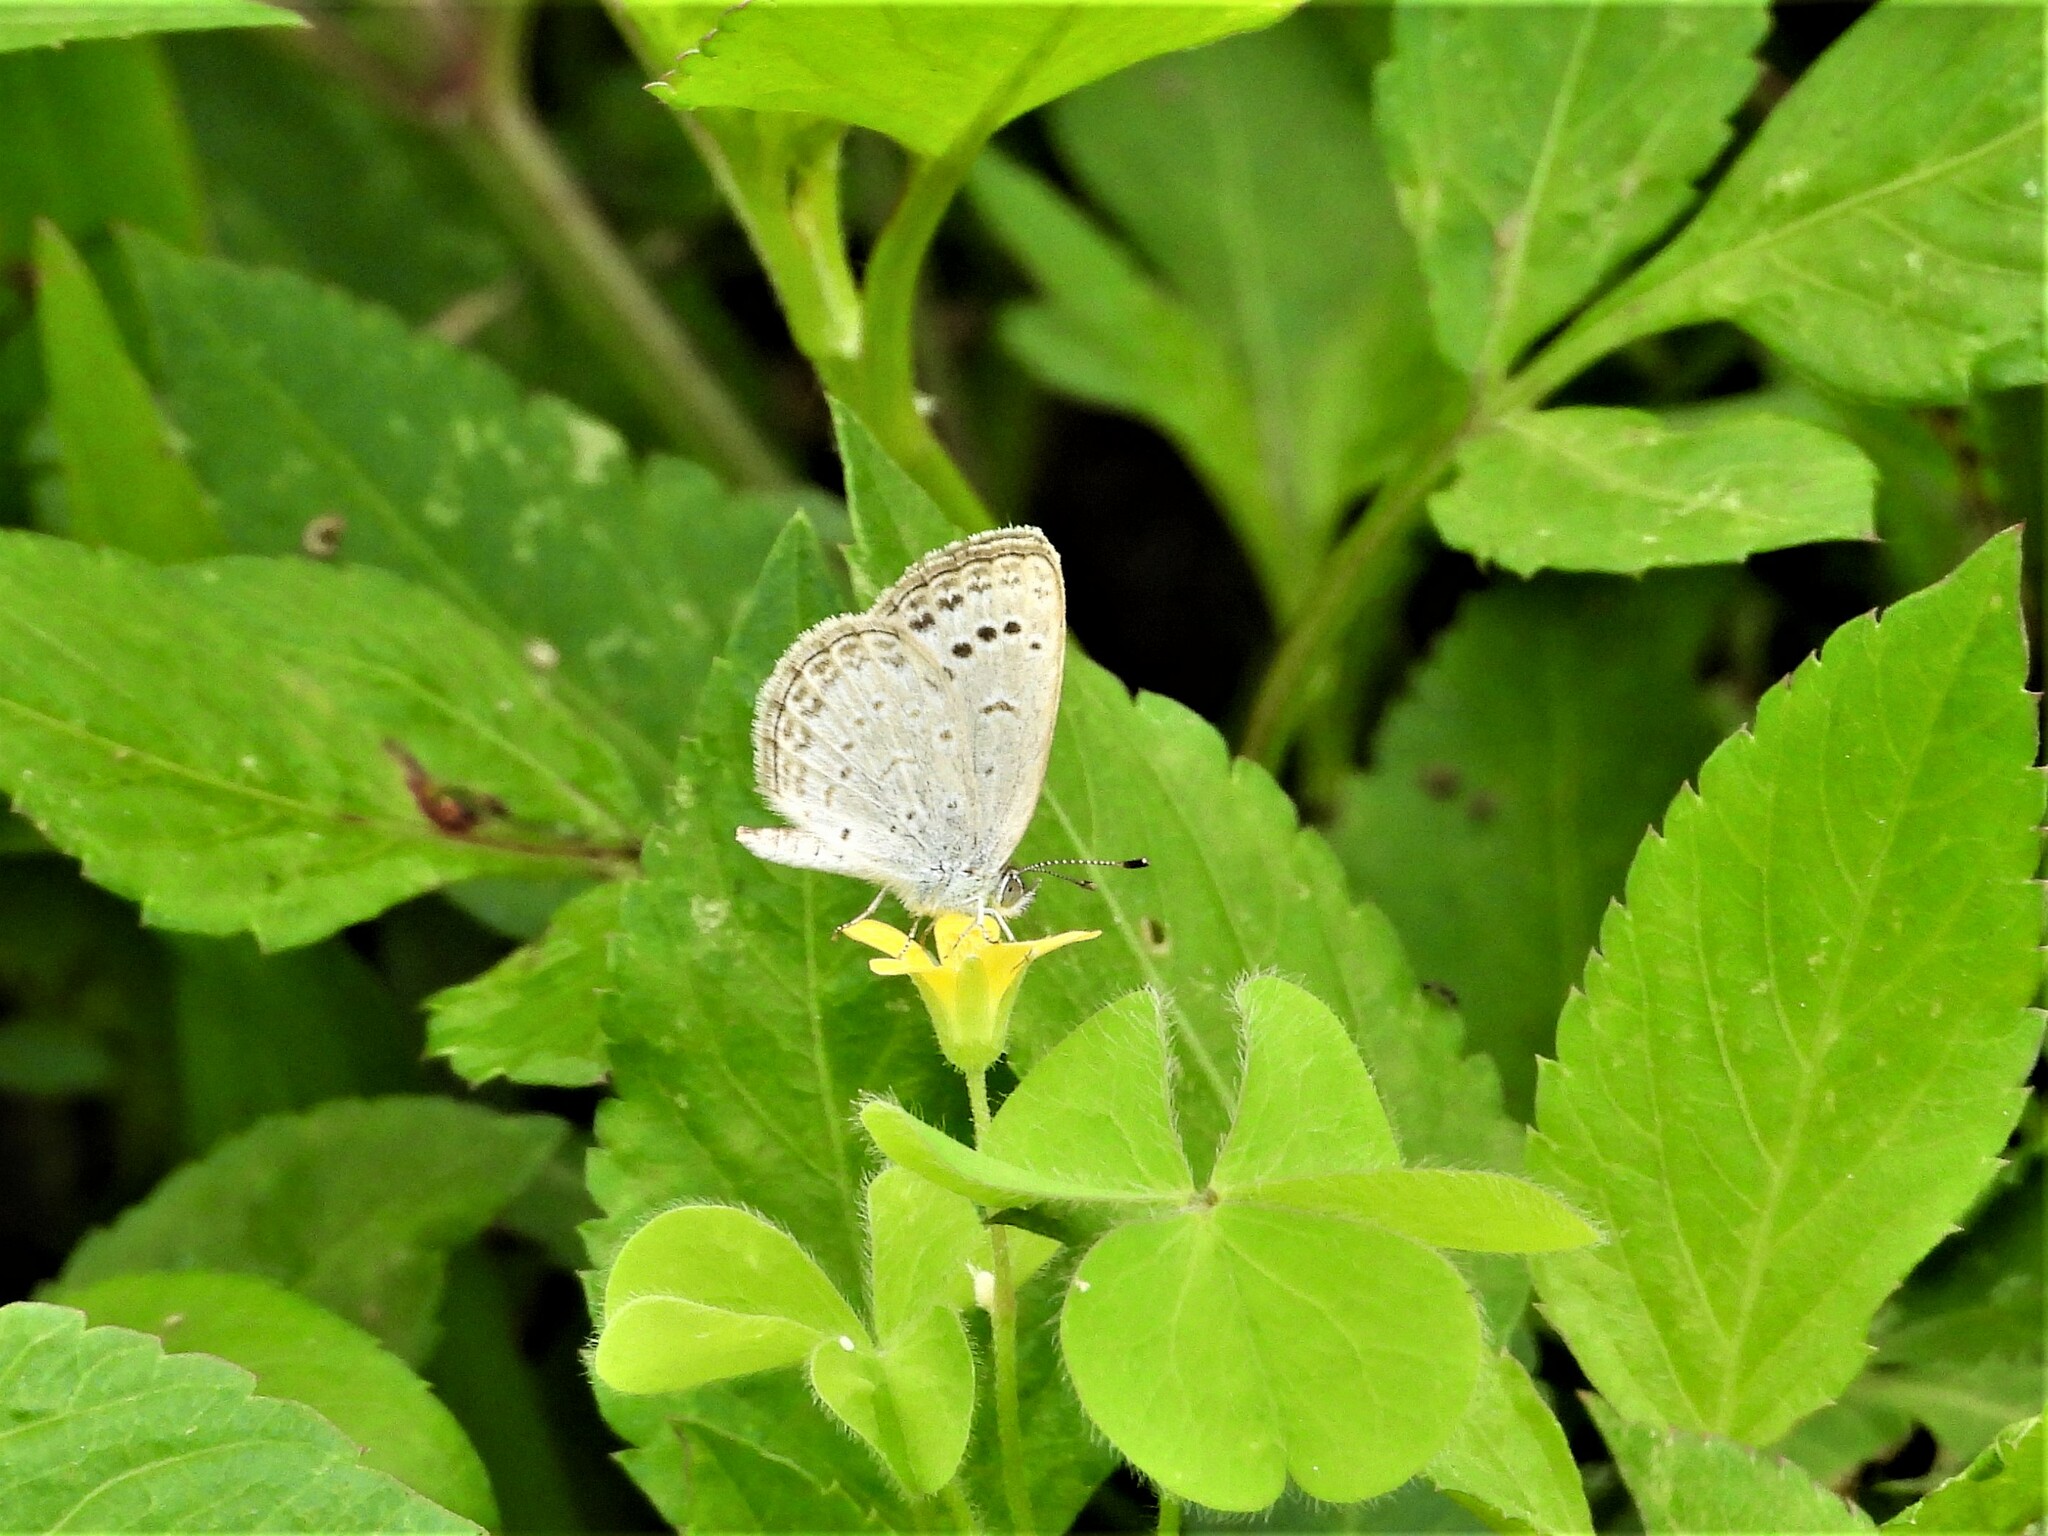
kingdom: Animalia
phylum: Arthropoda
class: Insecta
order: Lepidoptera
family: Lycaenidae
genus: Pseudozizeeria
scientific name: Pseudozizeeria maha
